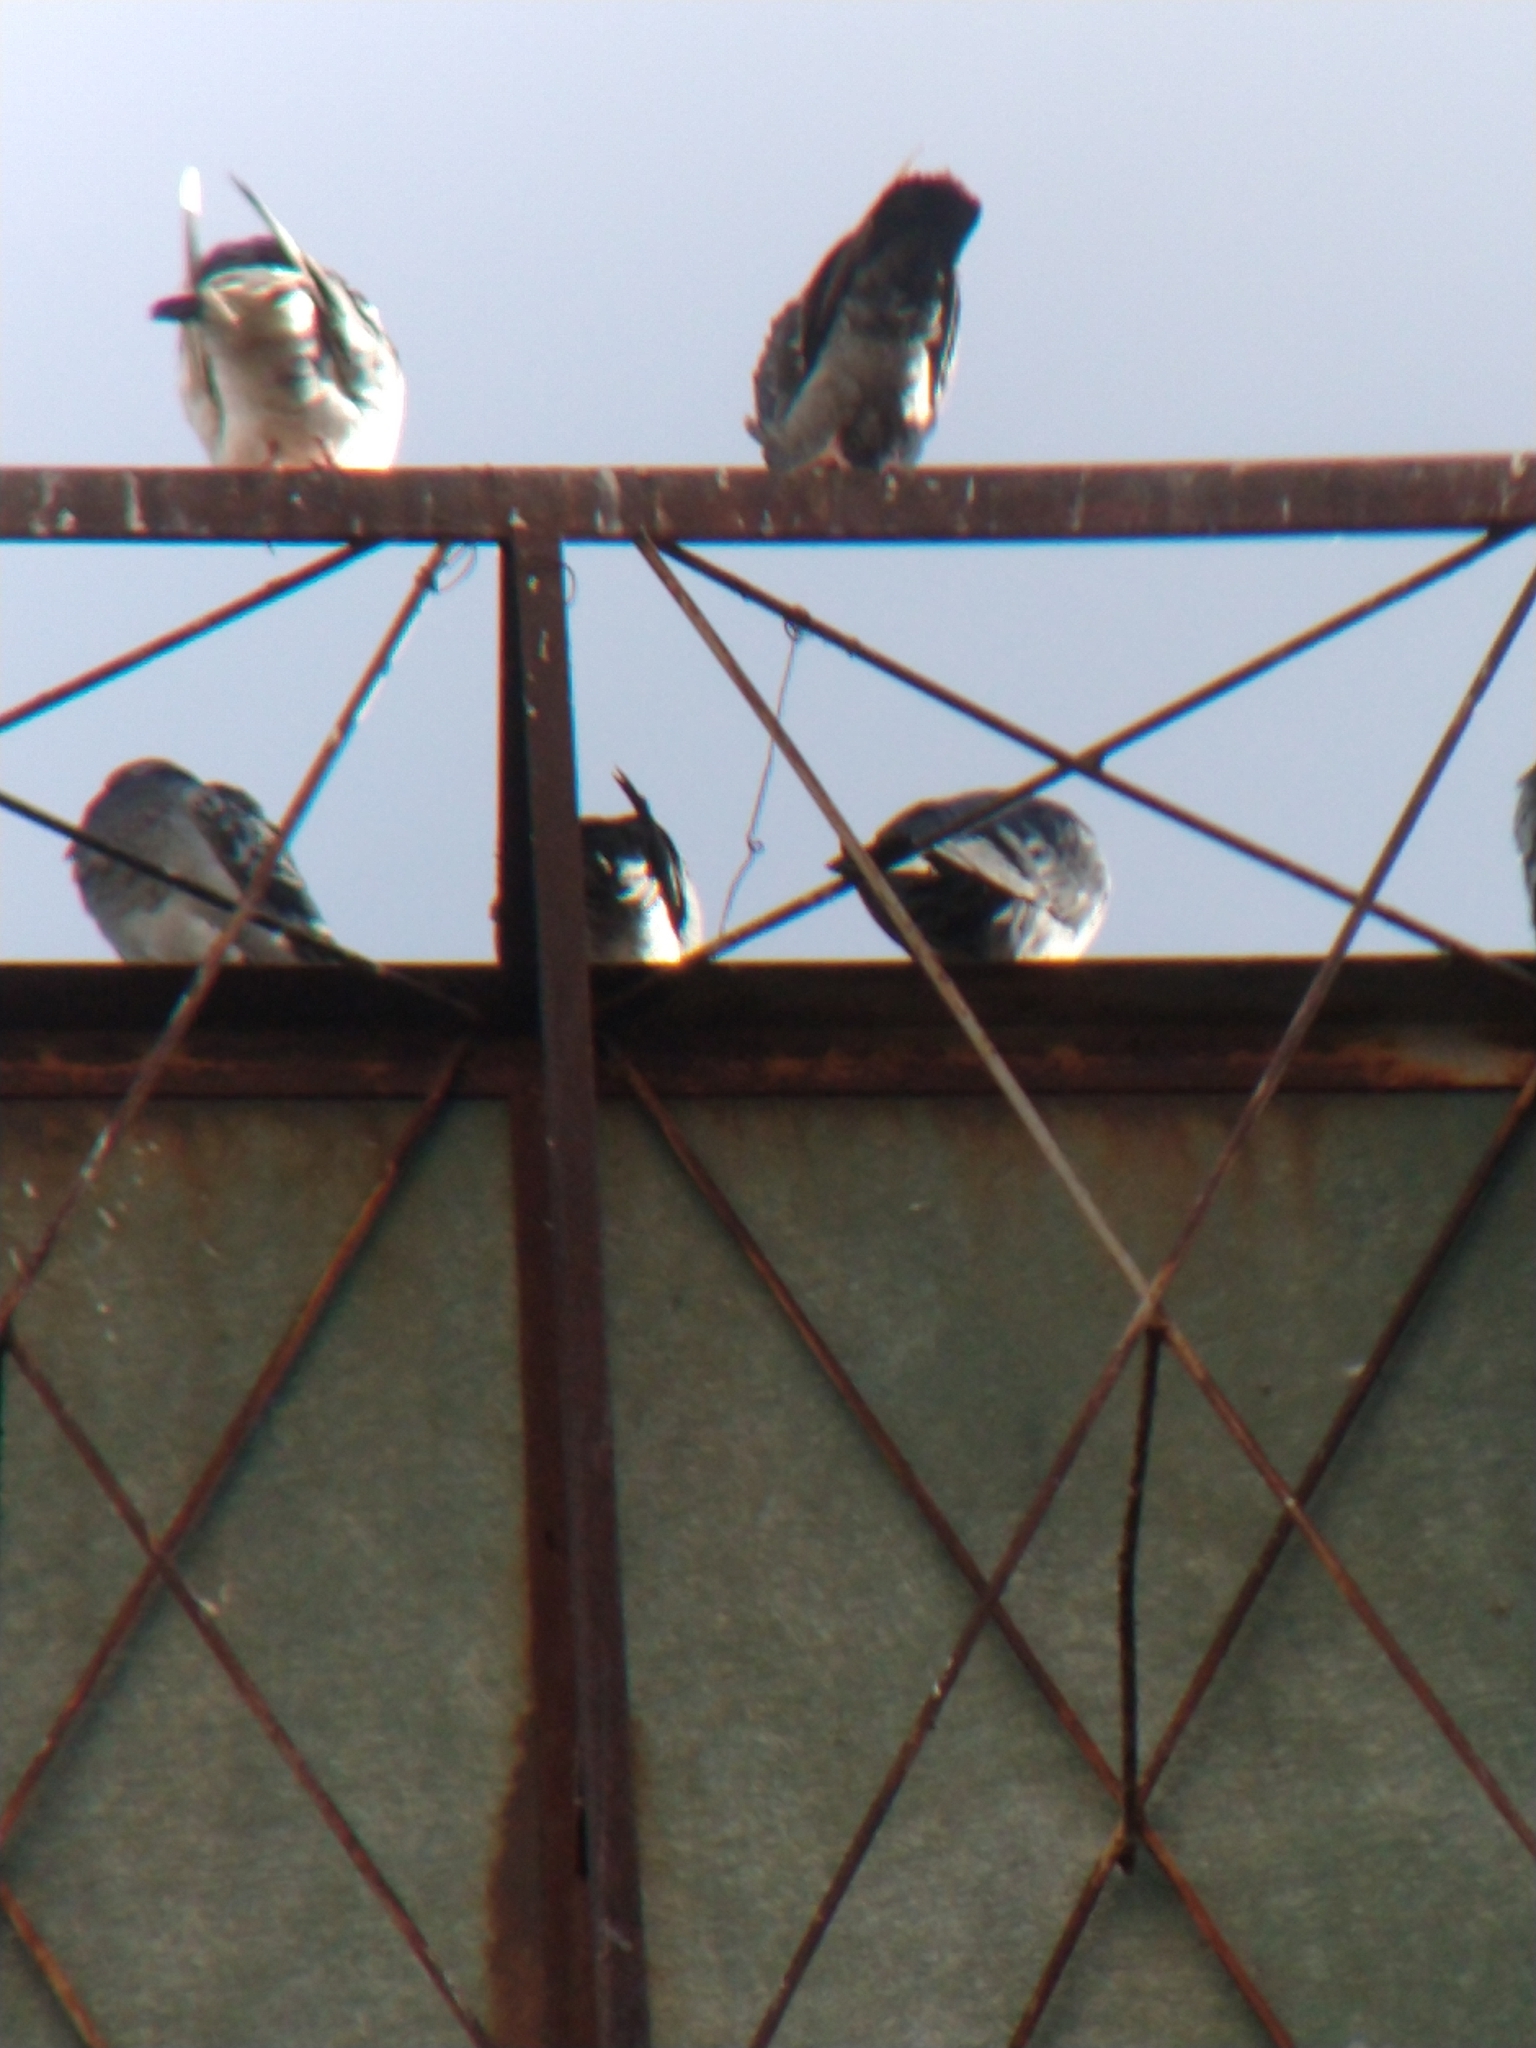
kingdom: Animalia
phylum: Chordata
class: Aves
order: Columbiformes
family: Columbidae
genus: Columba
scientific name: Columba livia
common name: Rock pigeon
